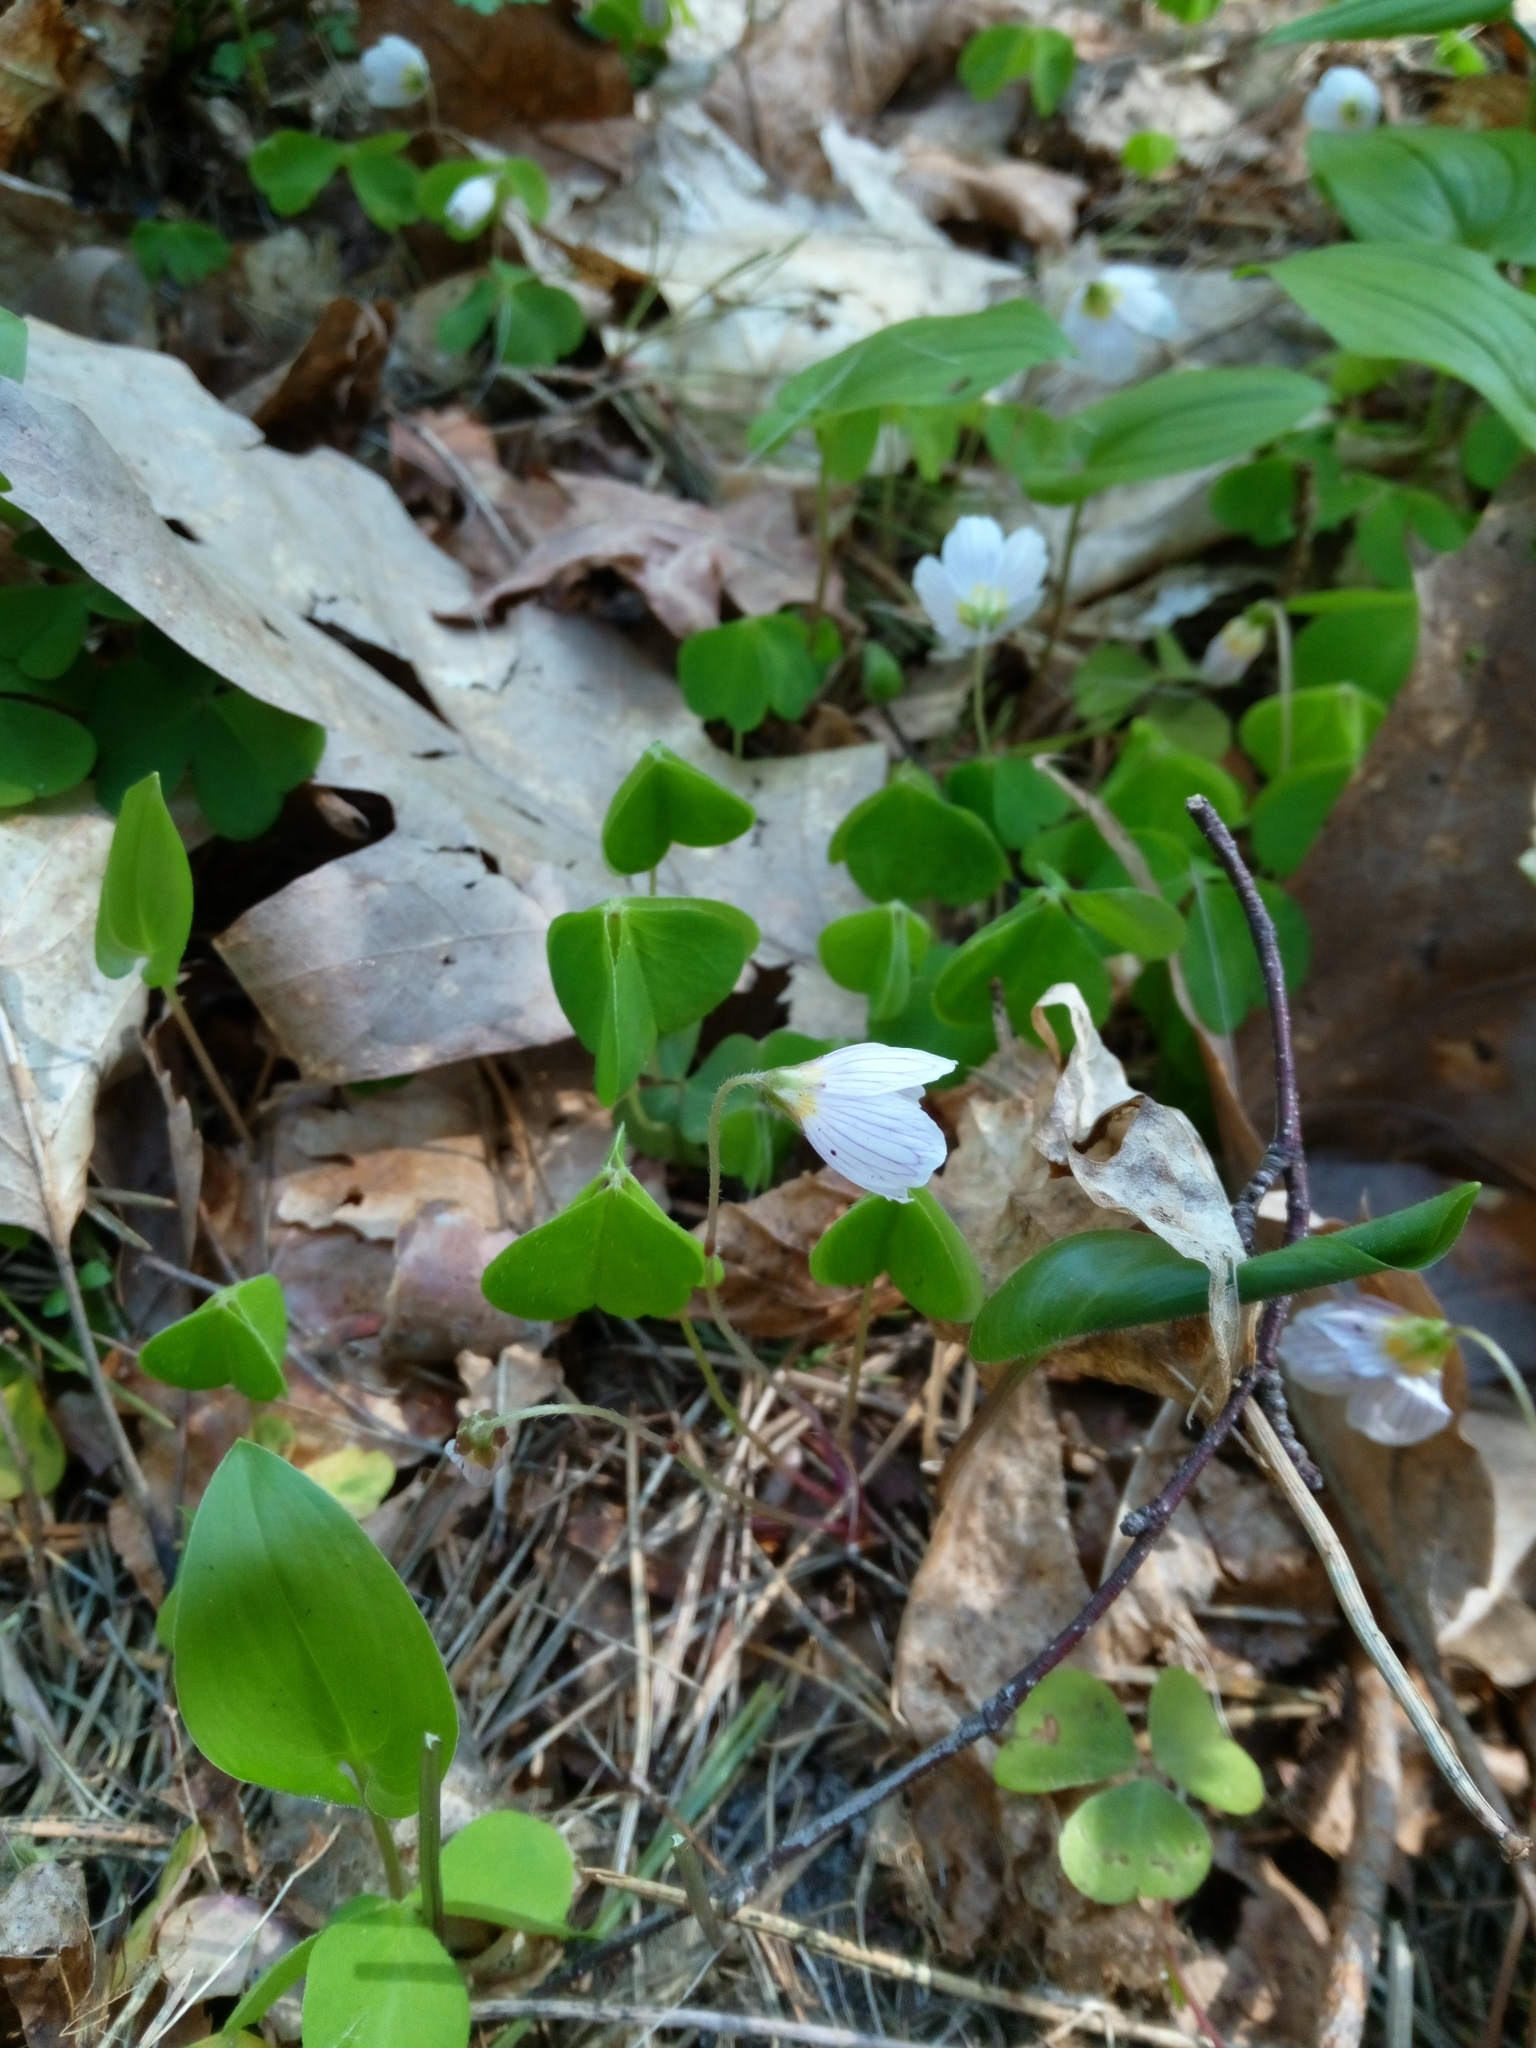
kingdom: Plantae
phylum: Tracheophyta
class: Magnoliopsida
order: Oxalidales
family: Oxalidaceae
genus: Oxalis
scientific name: Oxalis acetosella
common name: Wood-sorrel
